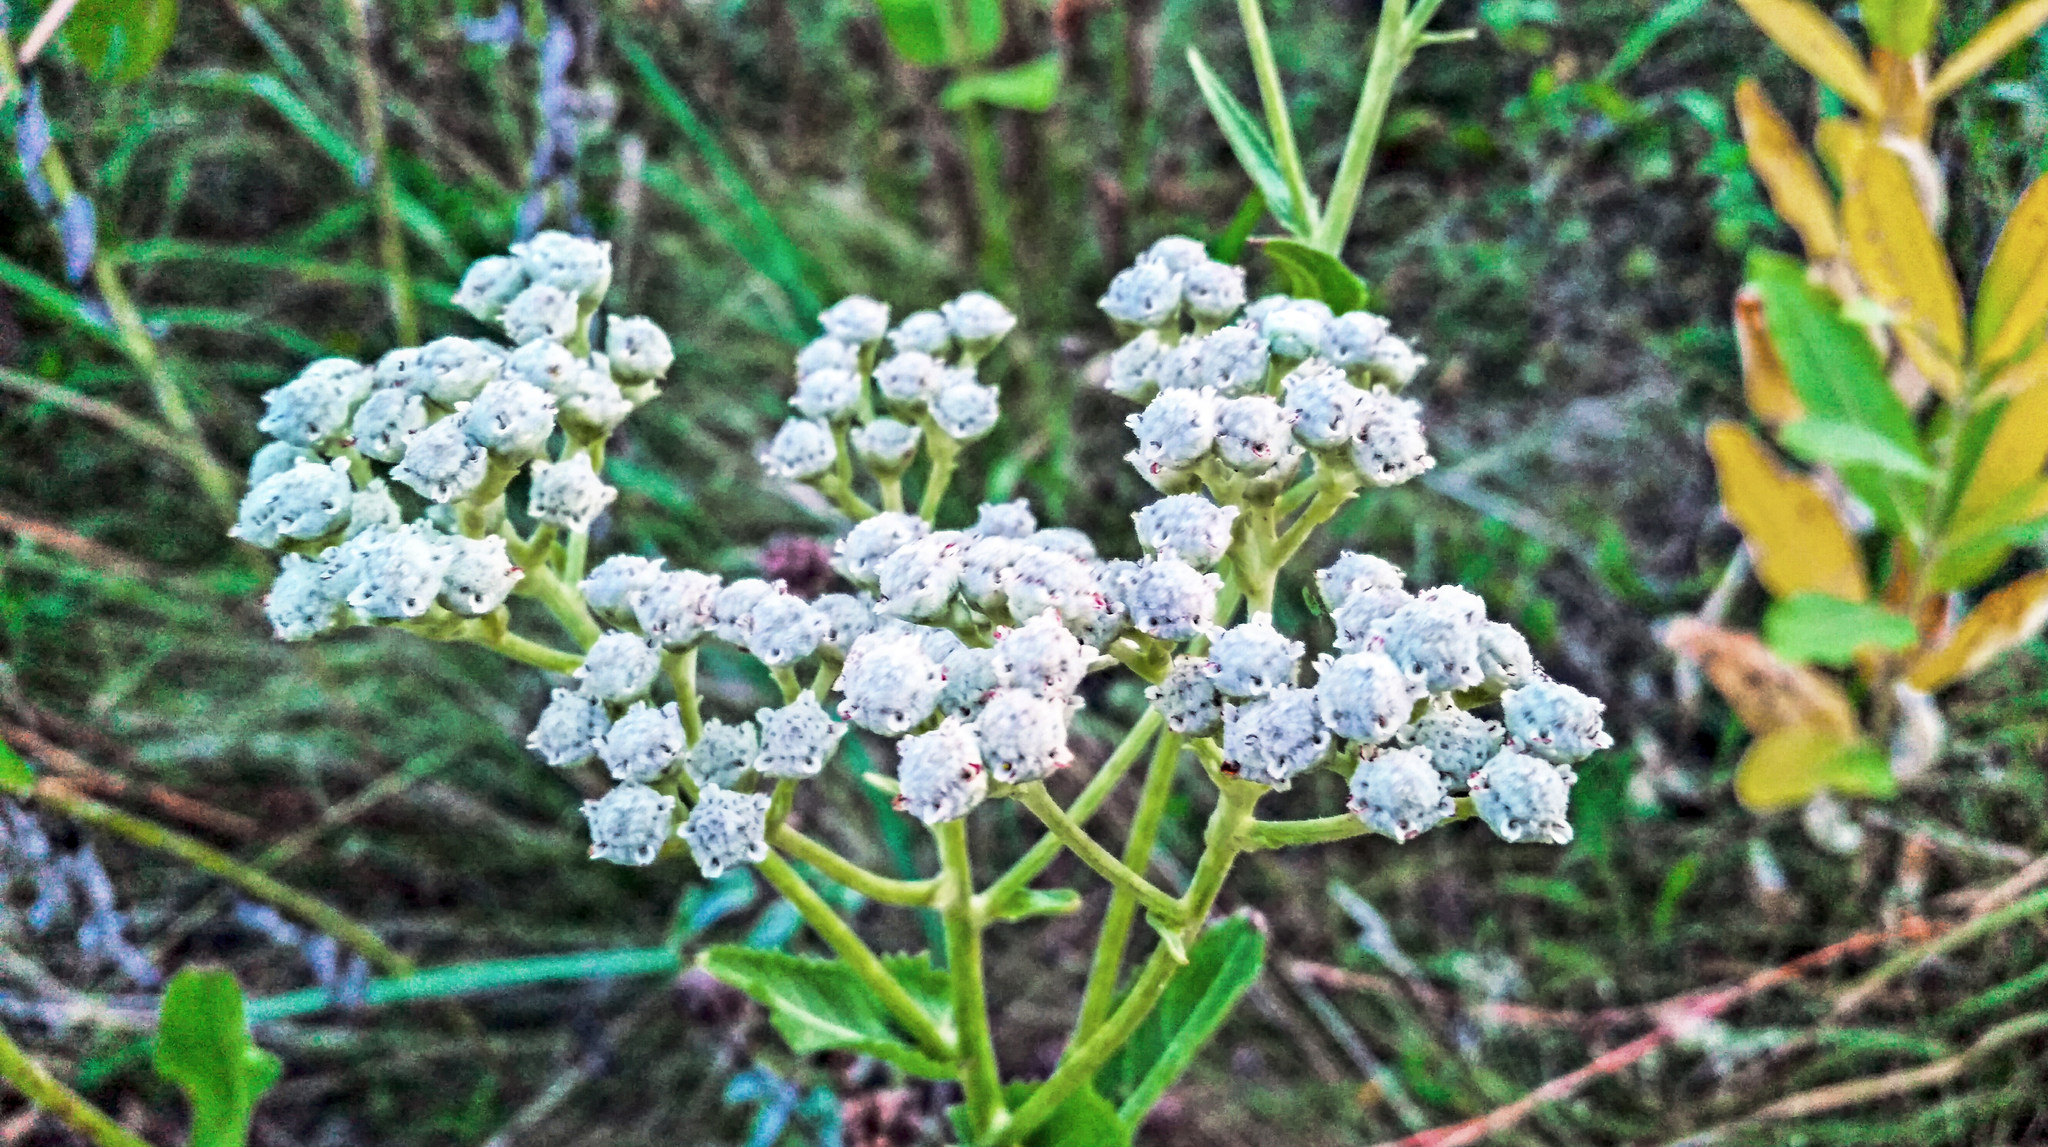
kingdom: Plantae
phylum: Tracheophyta
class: Magnoliopsida
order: Asterales
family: Asteraceae
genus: Parthenium
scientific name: Parthenium integrifolium
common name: American feverfew
